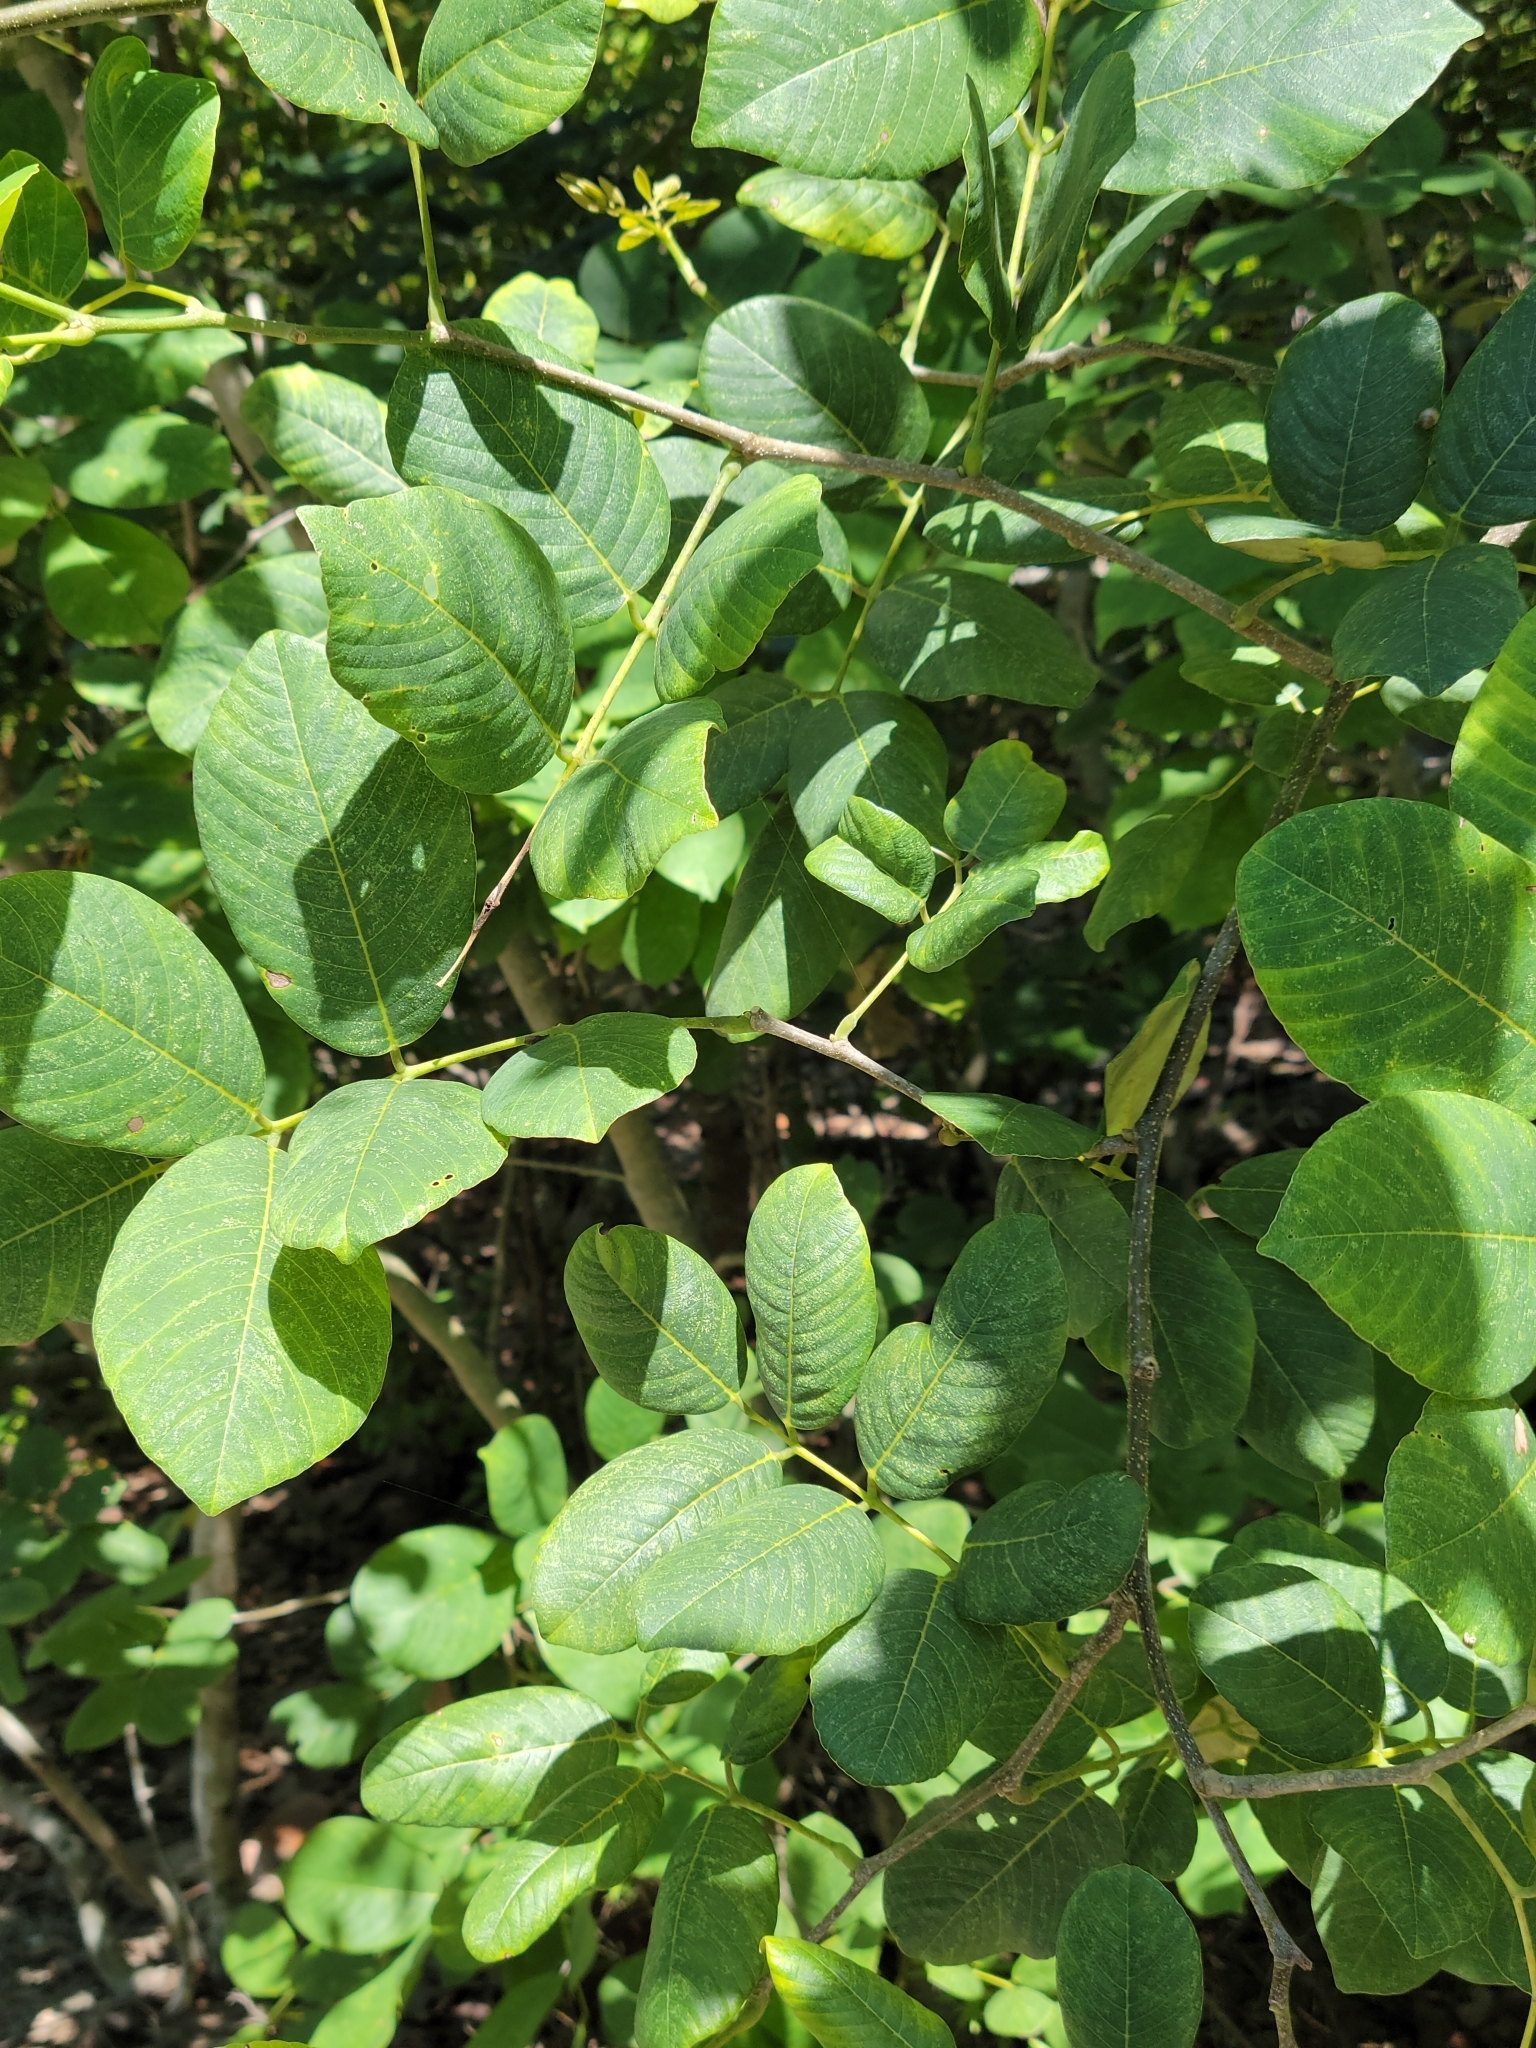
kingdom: Plantae
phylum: Tracheophyta
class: Magnoliopsida
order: Fabales
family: Fabaceae
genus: Piscidia
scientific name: Piscidia piscipula
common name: Florida fishpoison tree
